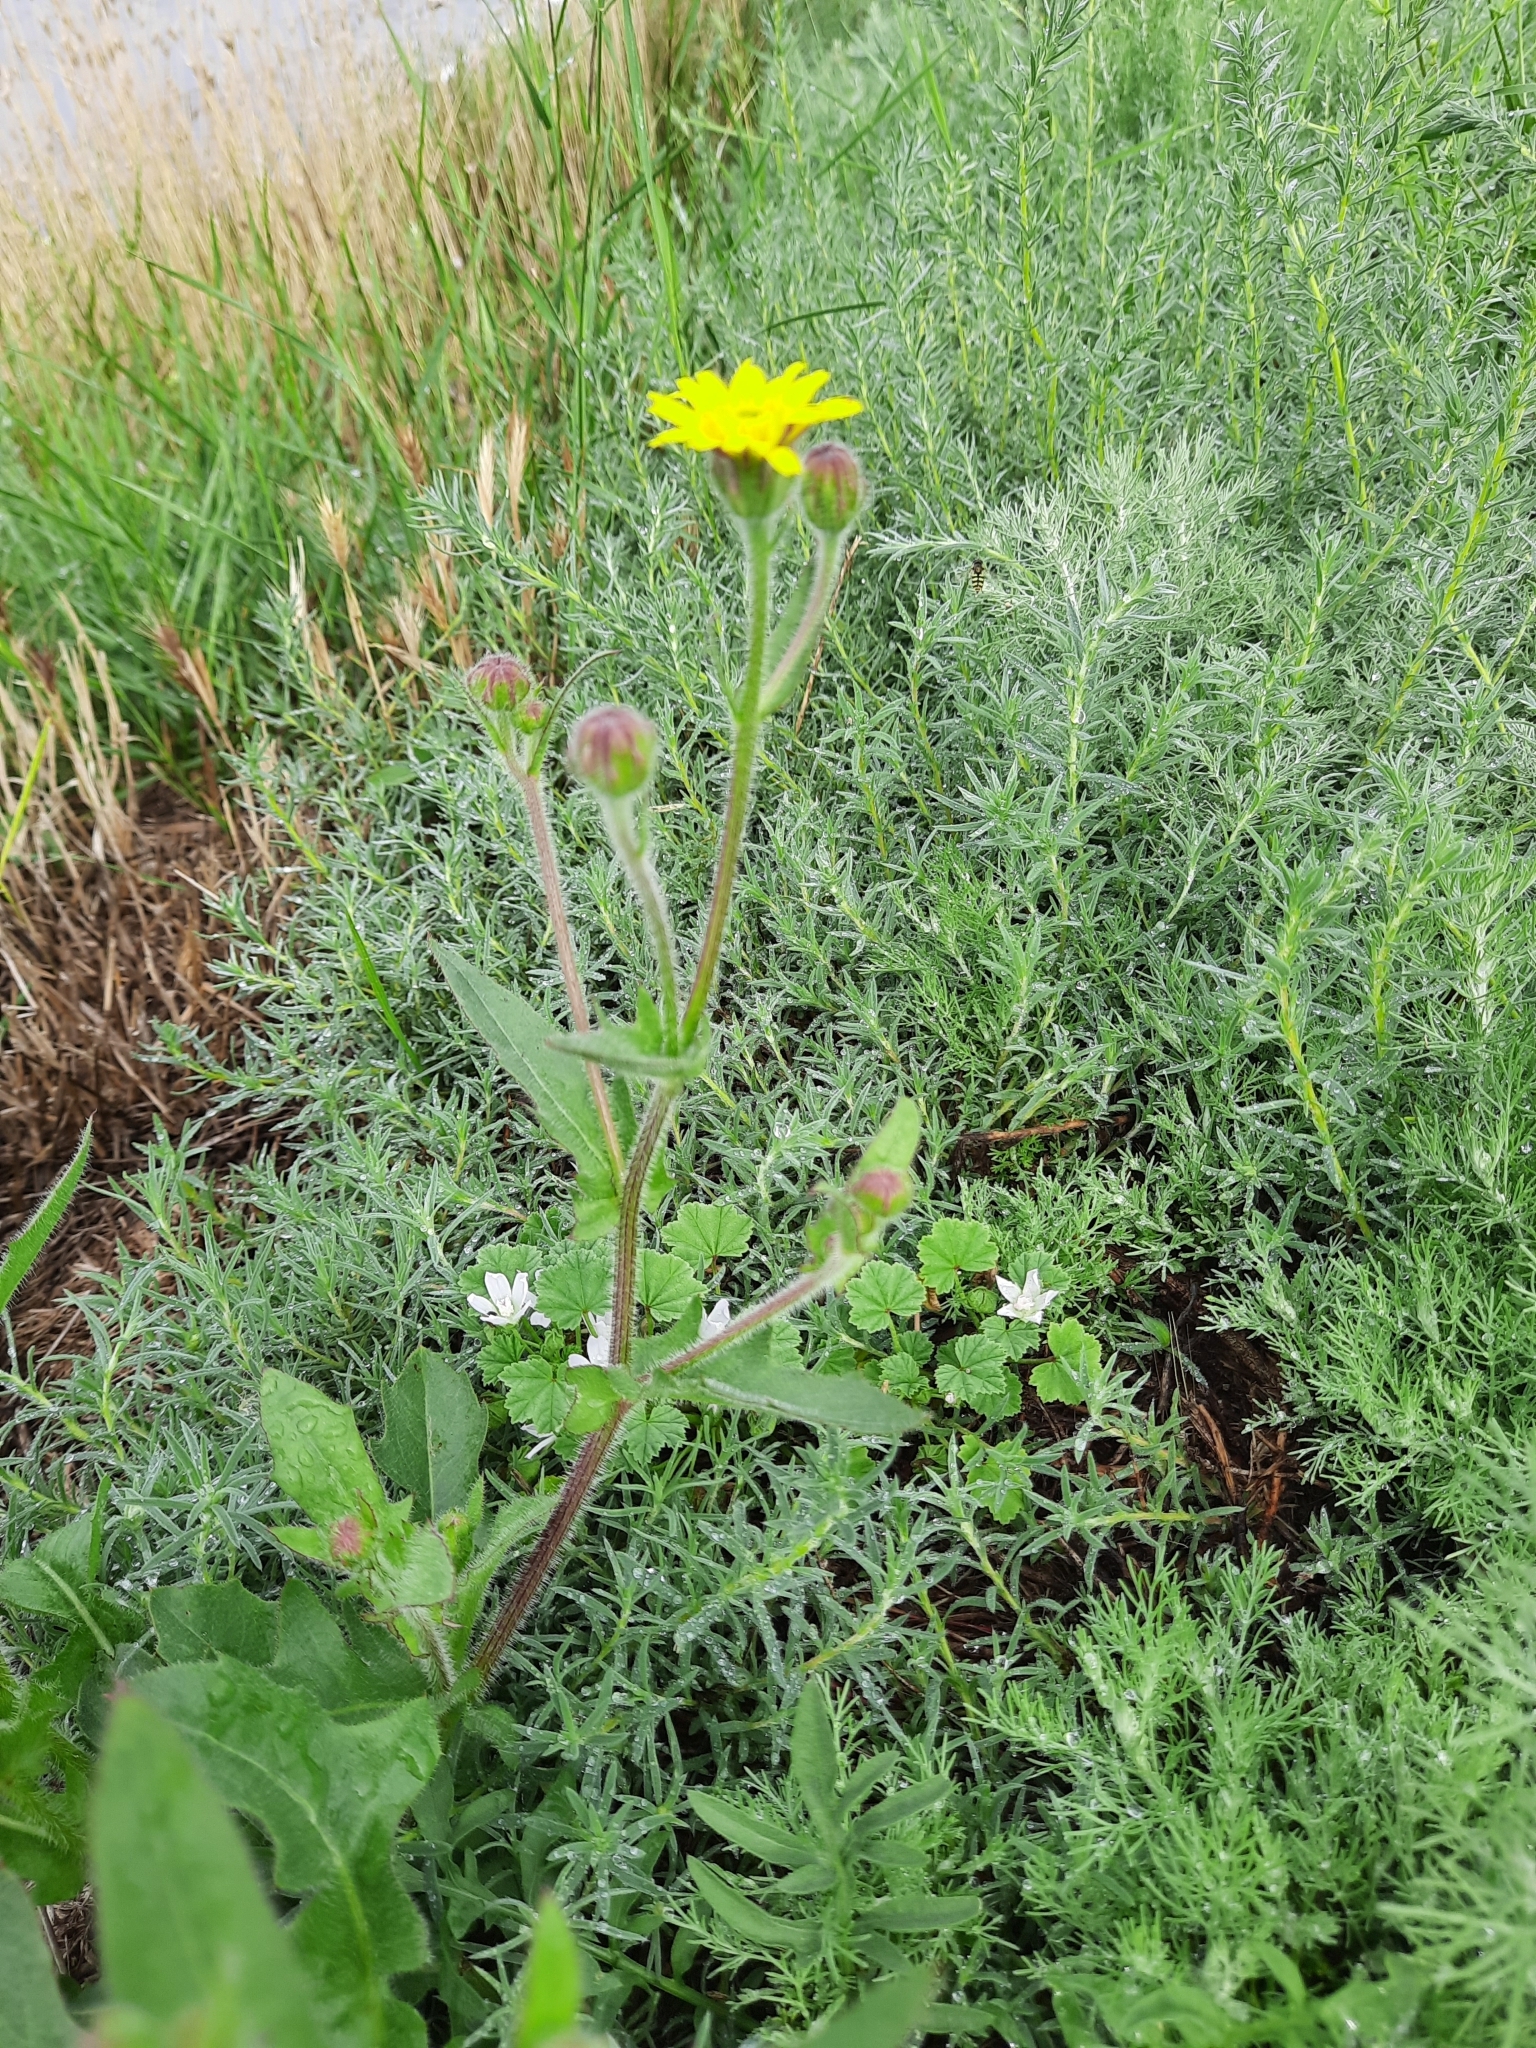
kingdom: Plantae
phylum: Tracheophyta
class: Magnoliopsida
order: Asterales
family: Asteraceae
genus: Crepis
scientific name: Crepis foetida
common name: Stinking hawk's-beard
